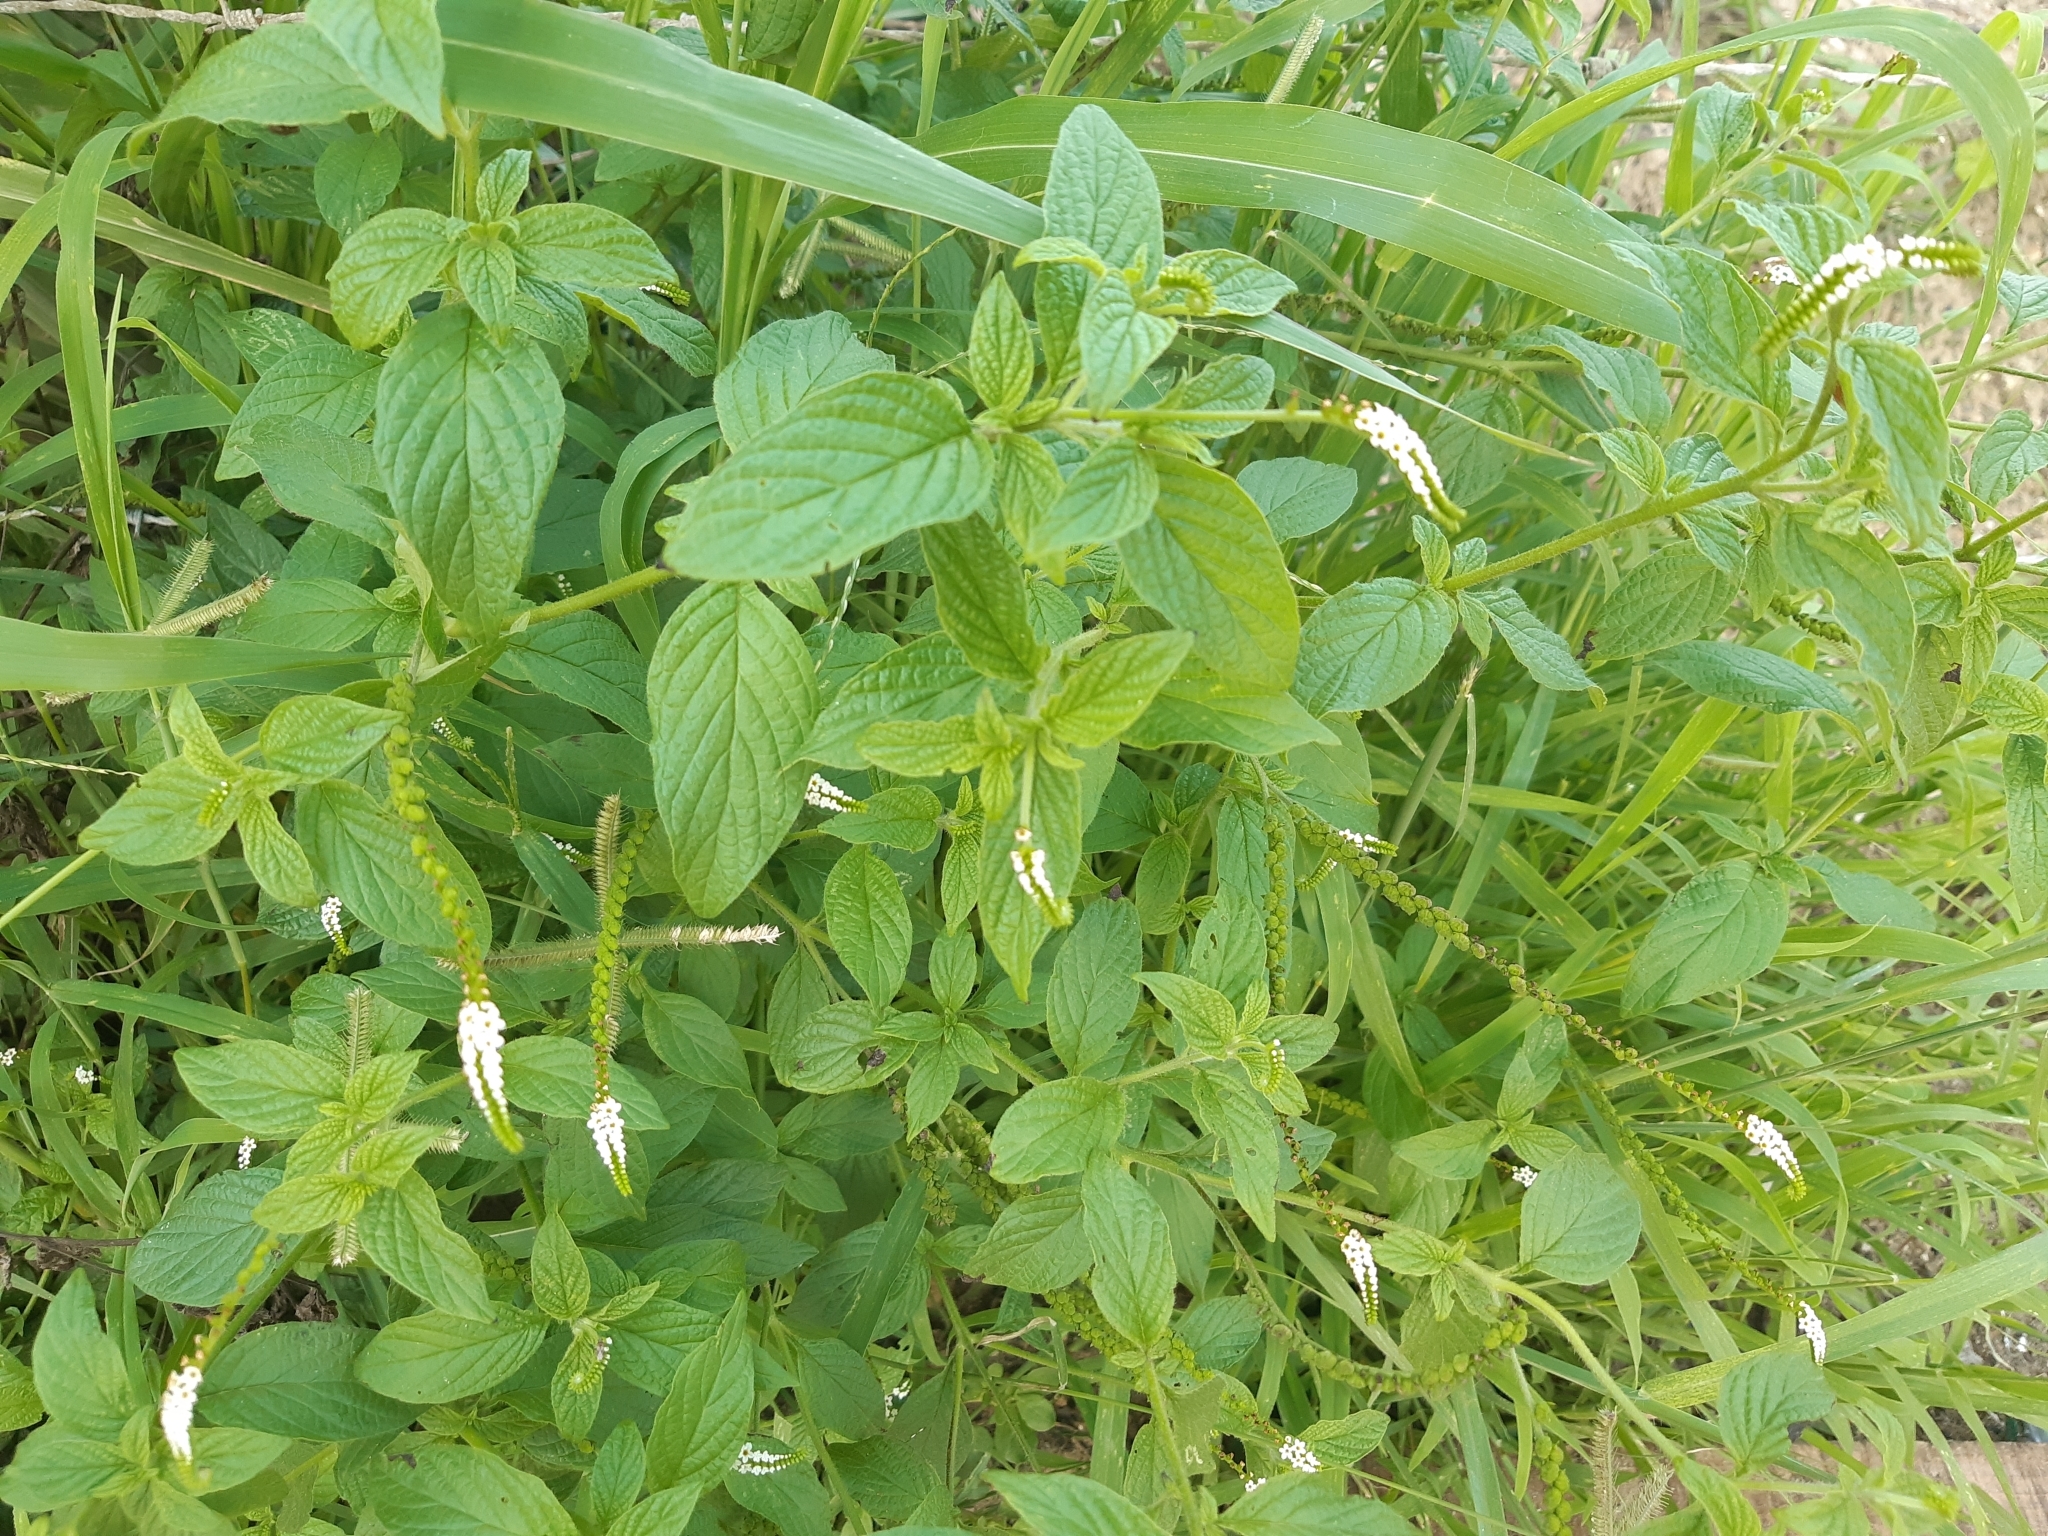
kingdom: Plantae
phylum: Tracheophyta
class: Magnoliopsida
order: Boraginales
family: Heliotropiaceae
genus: Heliotropium
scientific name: Heliotropium angiospermum
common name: Eye bright
